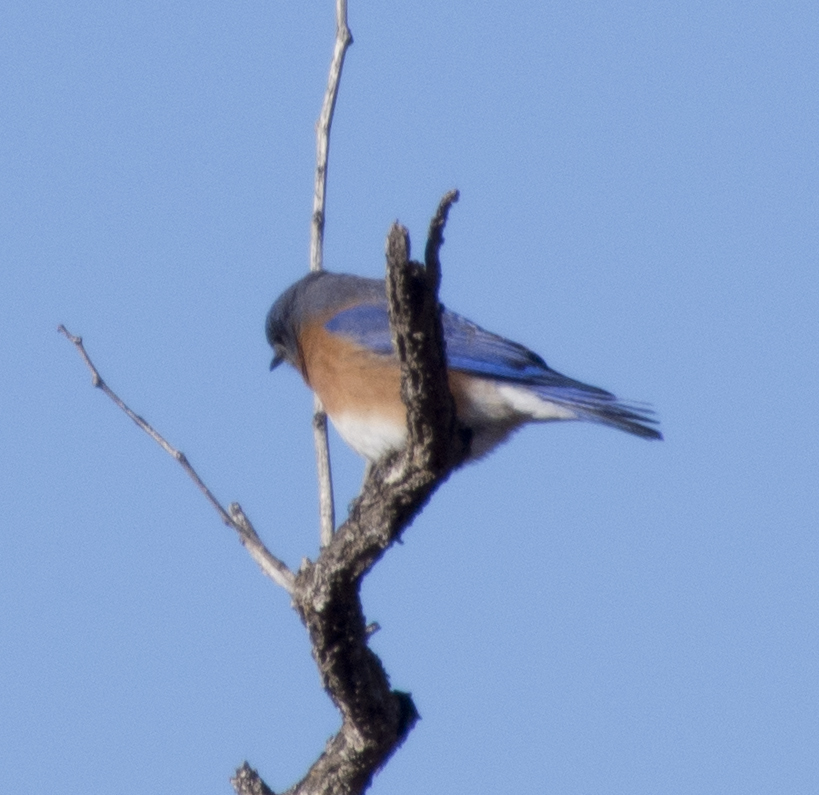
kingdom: Animalia
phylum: Chordata
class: Aves
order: Passeriformes
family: Turdidae
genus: Sialia
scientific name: Sialia sialis
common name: Eastern bluebird
